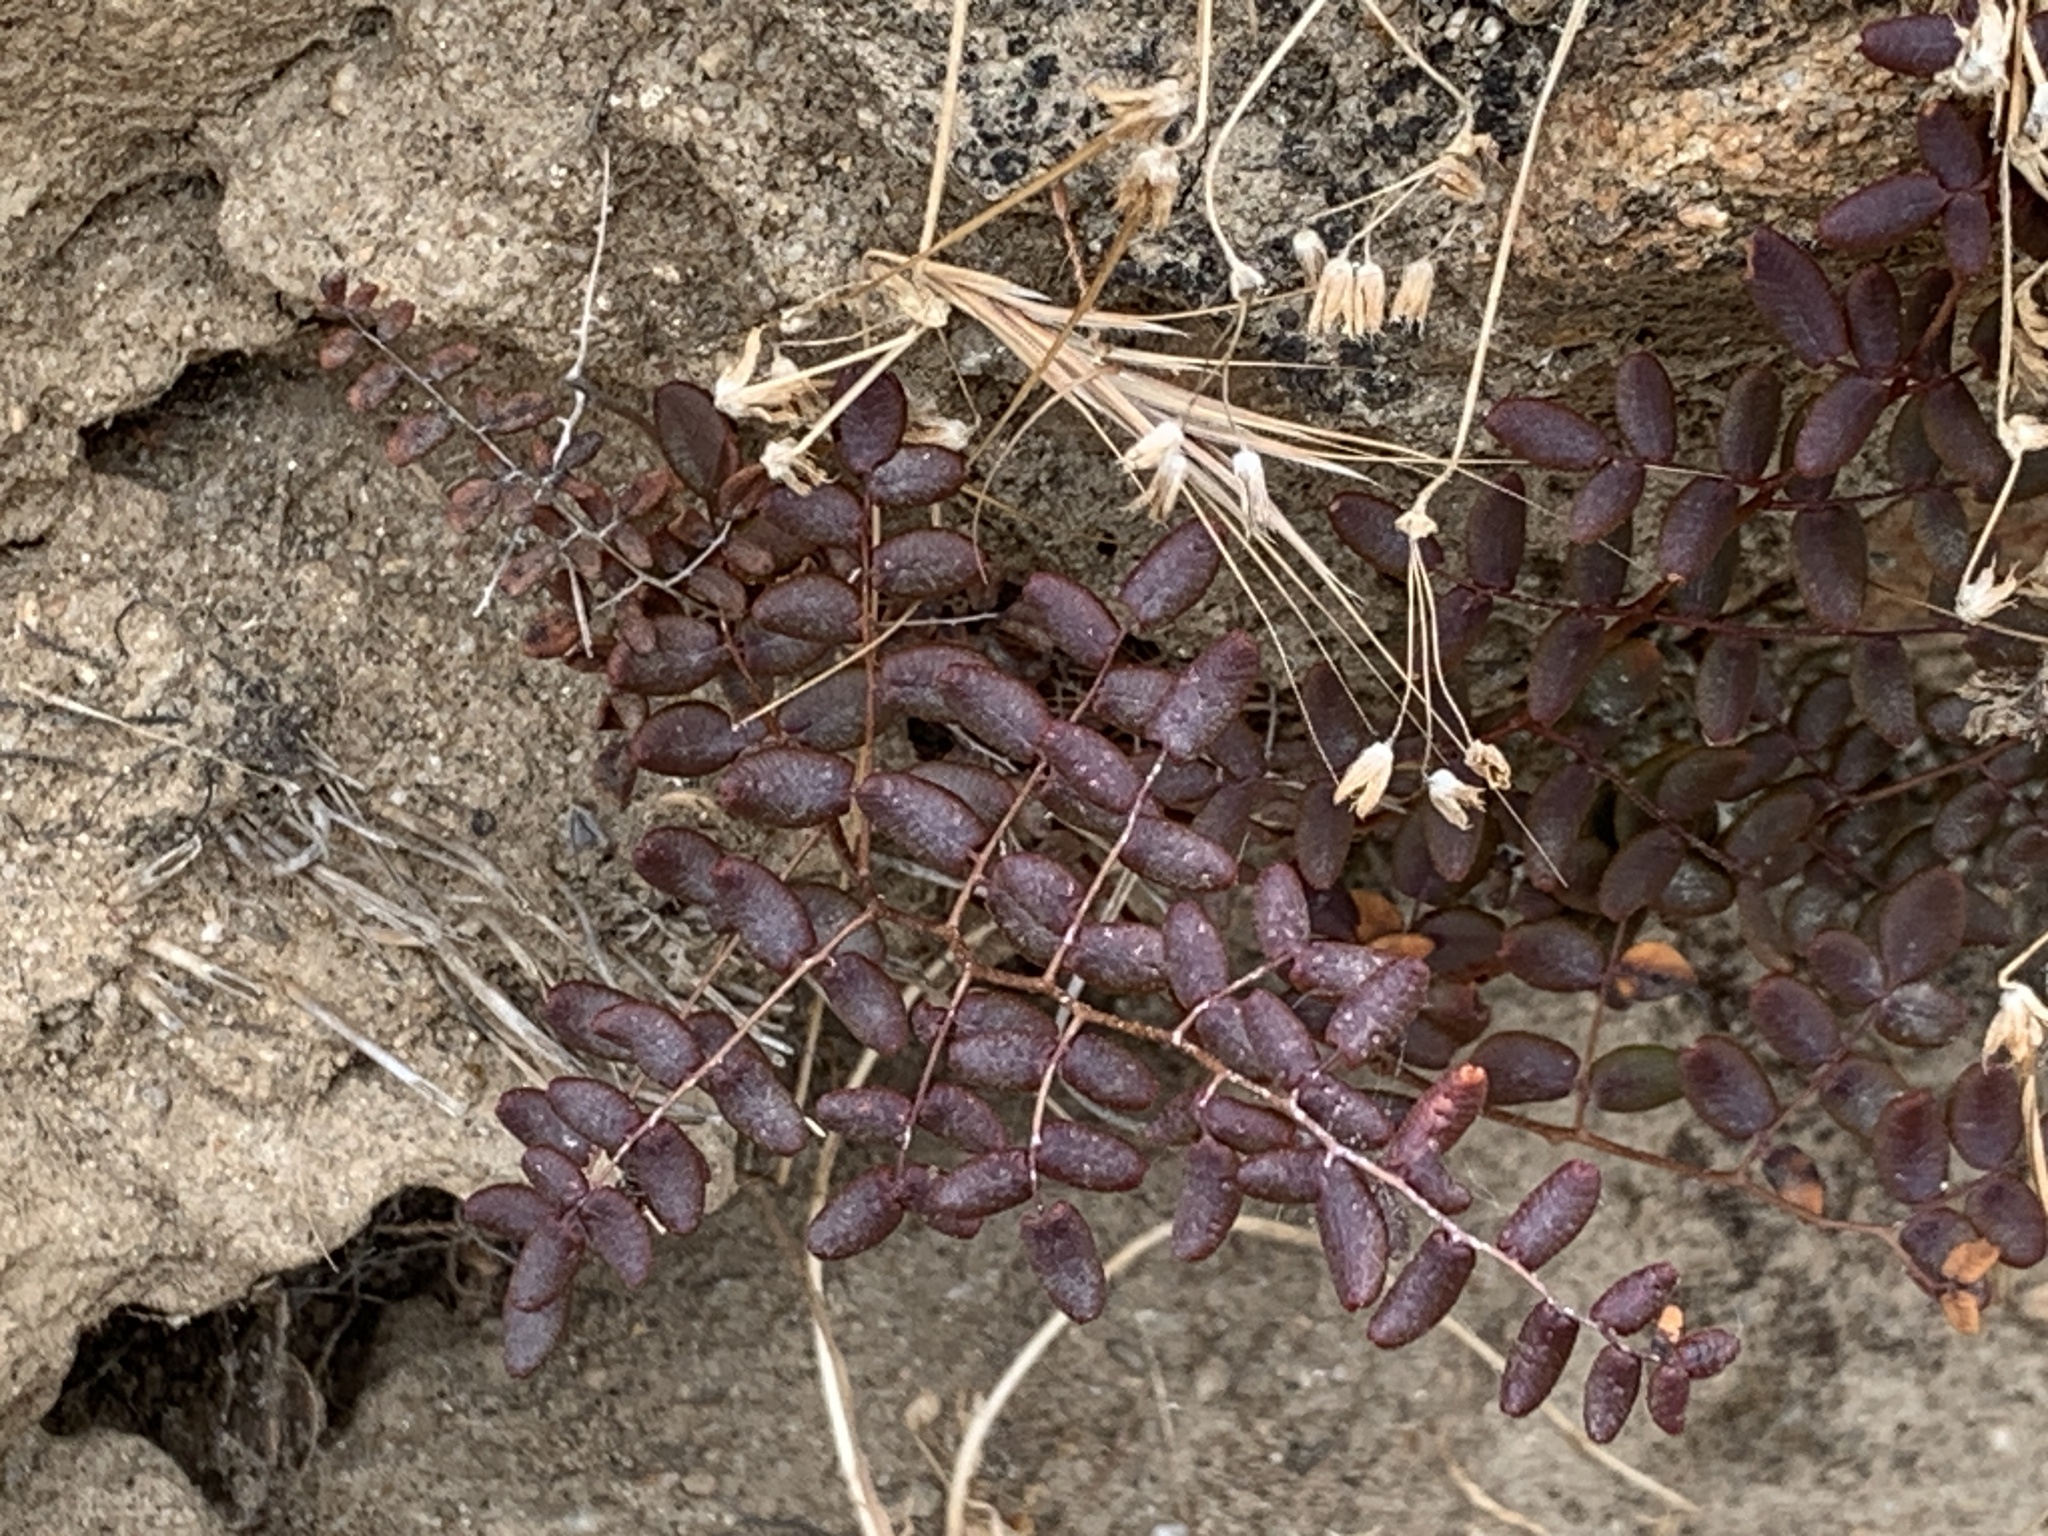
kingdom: Plantae
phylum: Tracheophyta
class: Polypodiopsida
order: Polypodiales
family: Pteridaceae
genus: Pellaea
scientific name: Pellaea andromedifolia
